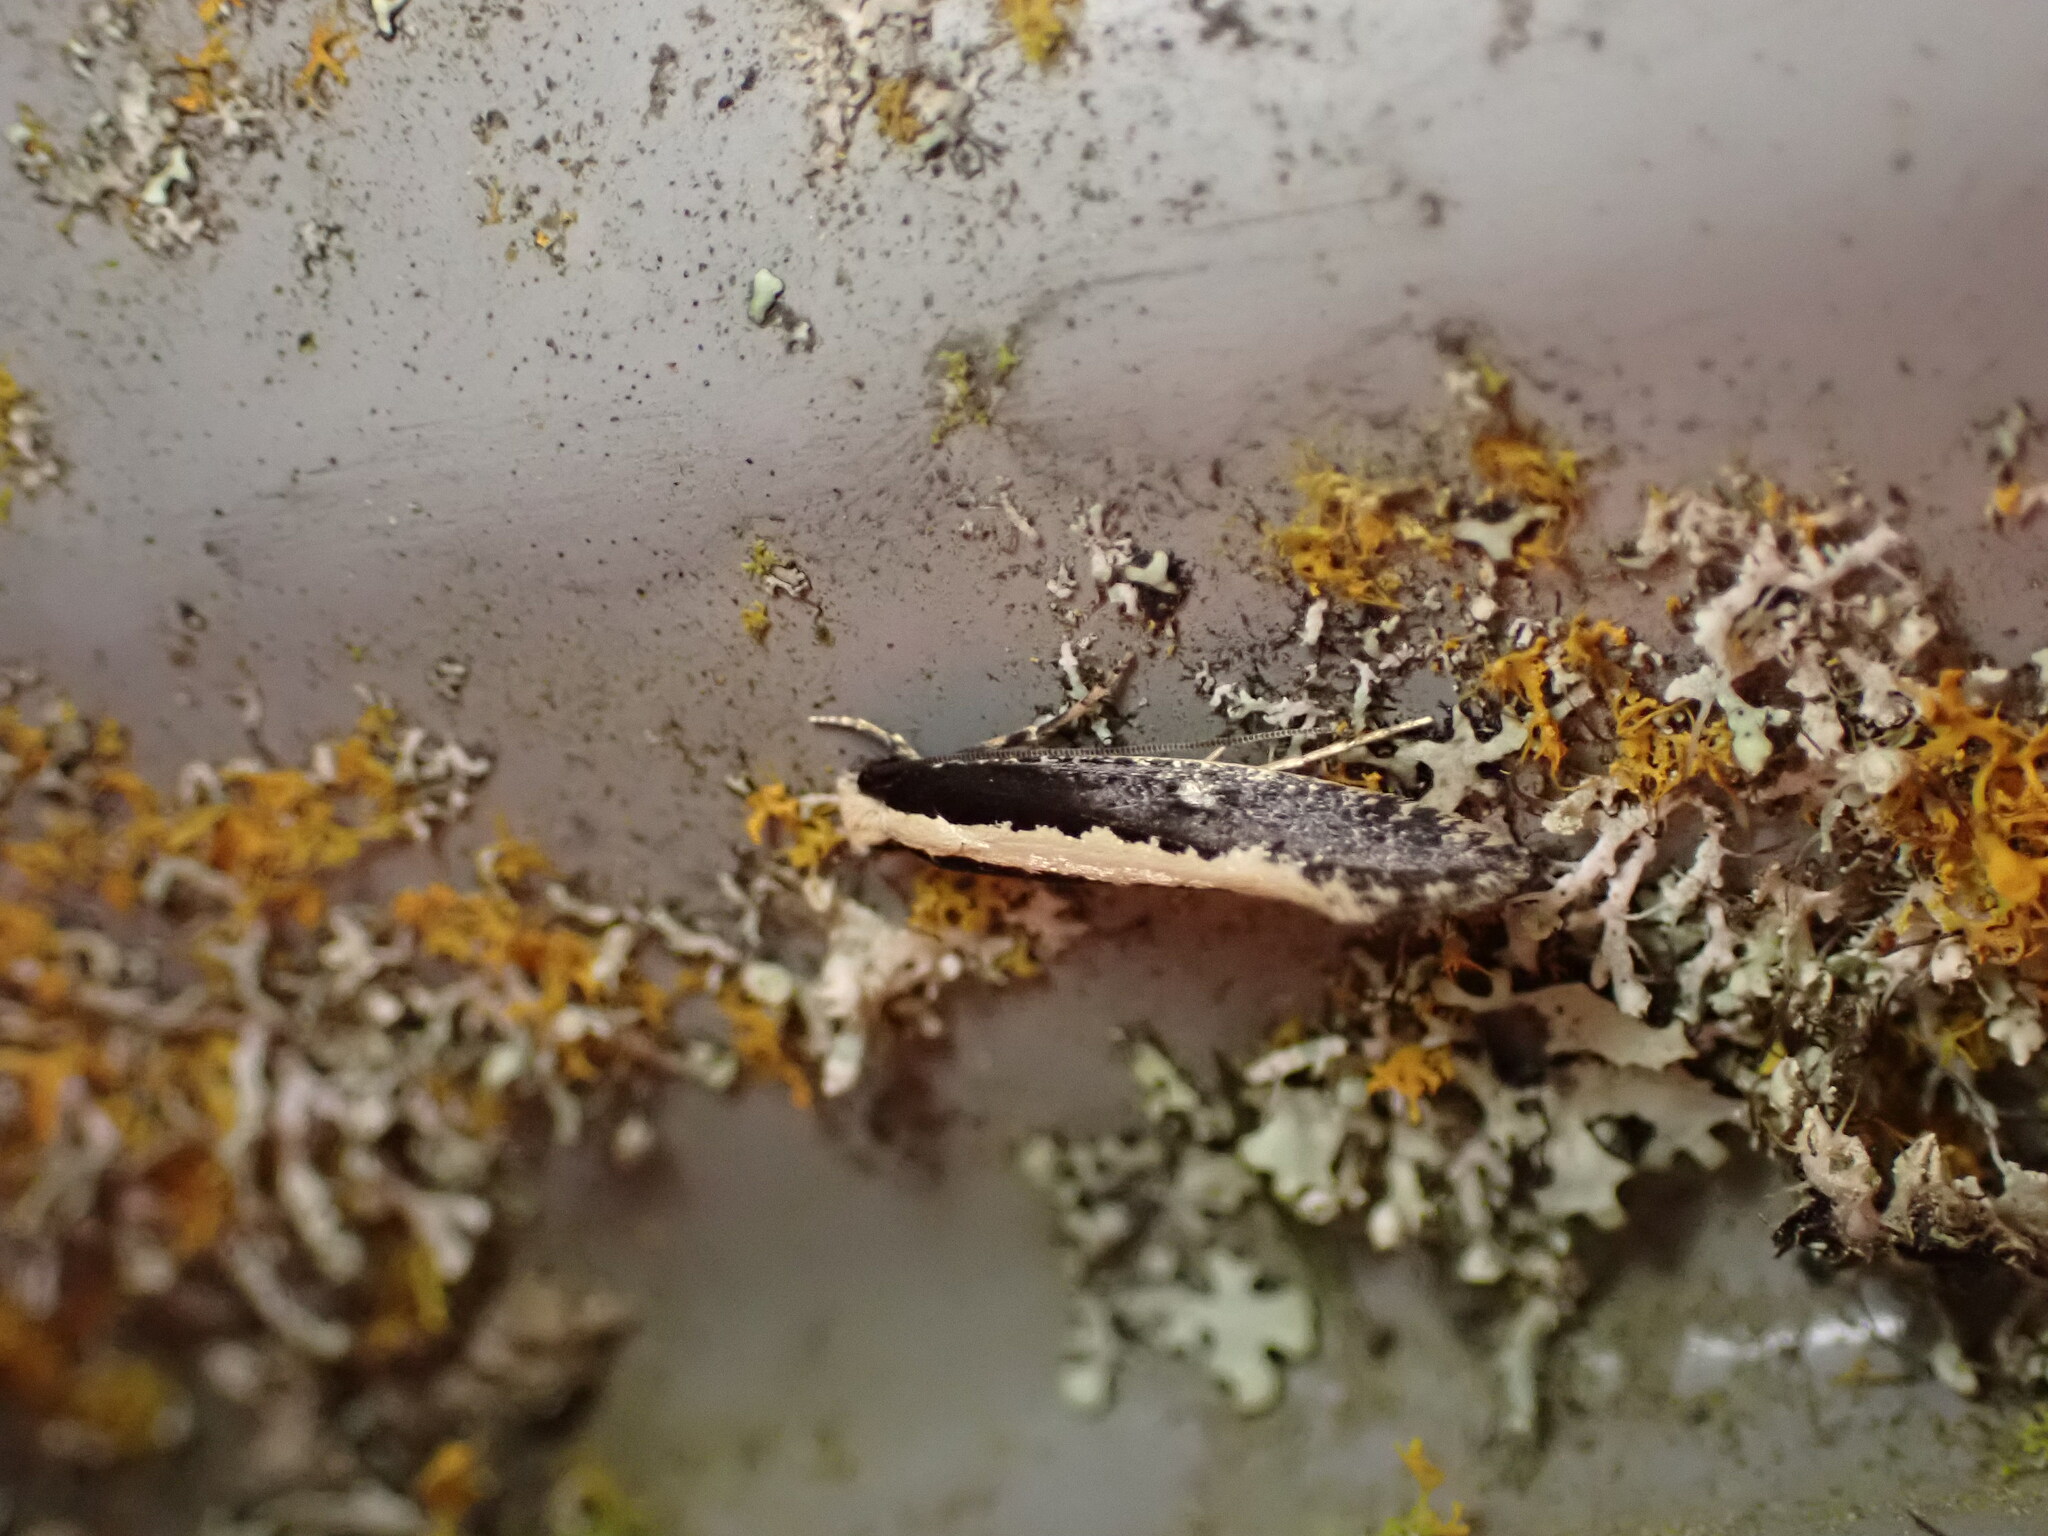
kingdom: Animalia
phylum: Arthropoda
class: Insecta
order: Lepidoptera
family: Tineidae
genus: Monopis
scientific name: Monopis ethelella
